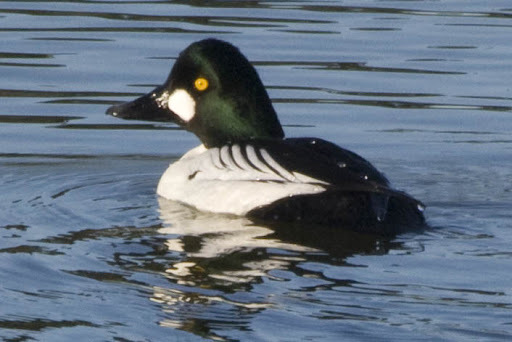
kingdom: Animalia
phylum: Chordata
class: Aves
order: Anseriformes
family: Anatidae
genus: Bucephala
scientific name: Bucephala clangula
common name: Common goldeneye
